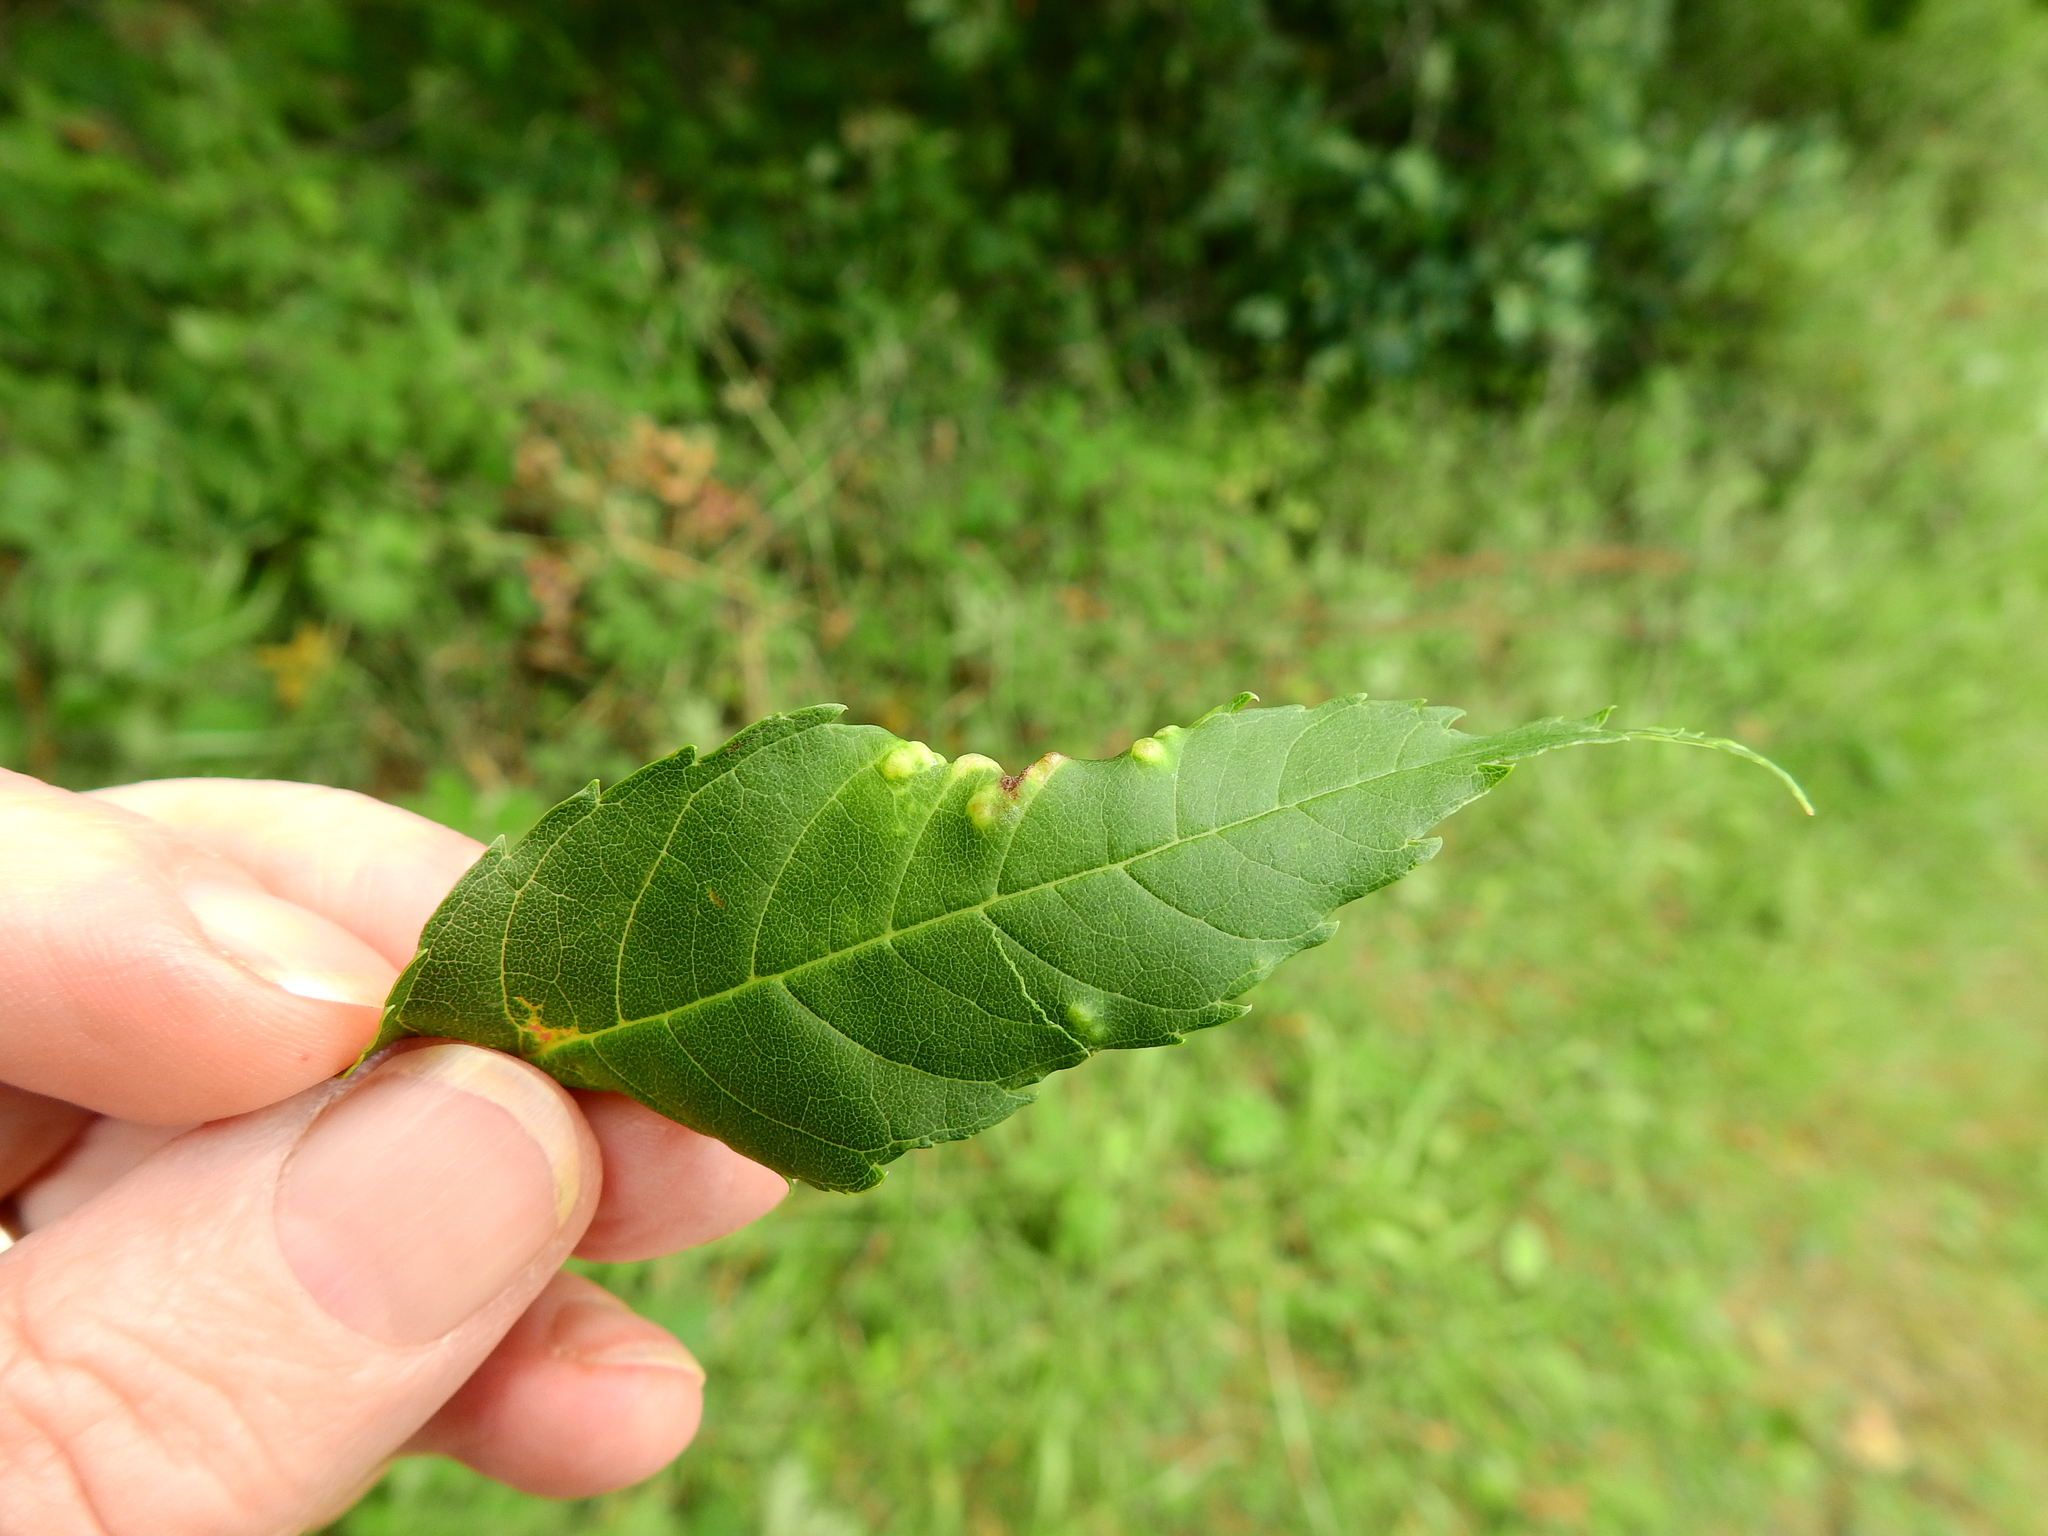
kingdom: Animalia
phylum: Arthropoda
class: Insecta
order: Hemiptera
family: Liviidae
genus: Psyllopsis
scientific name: Psyllopsis fraxini
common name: Jumping plant louse
